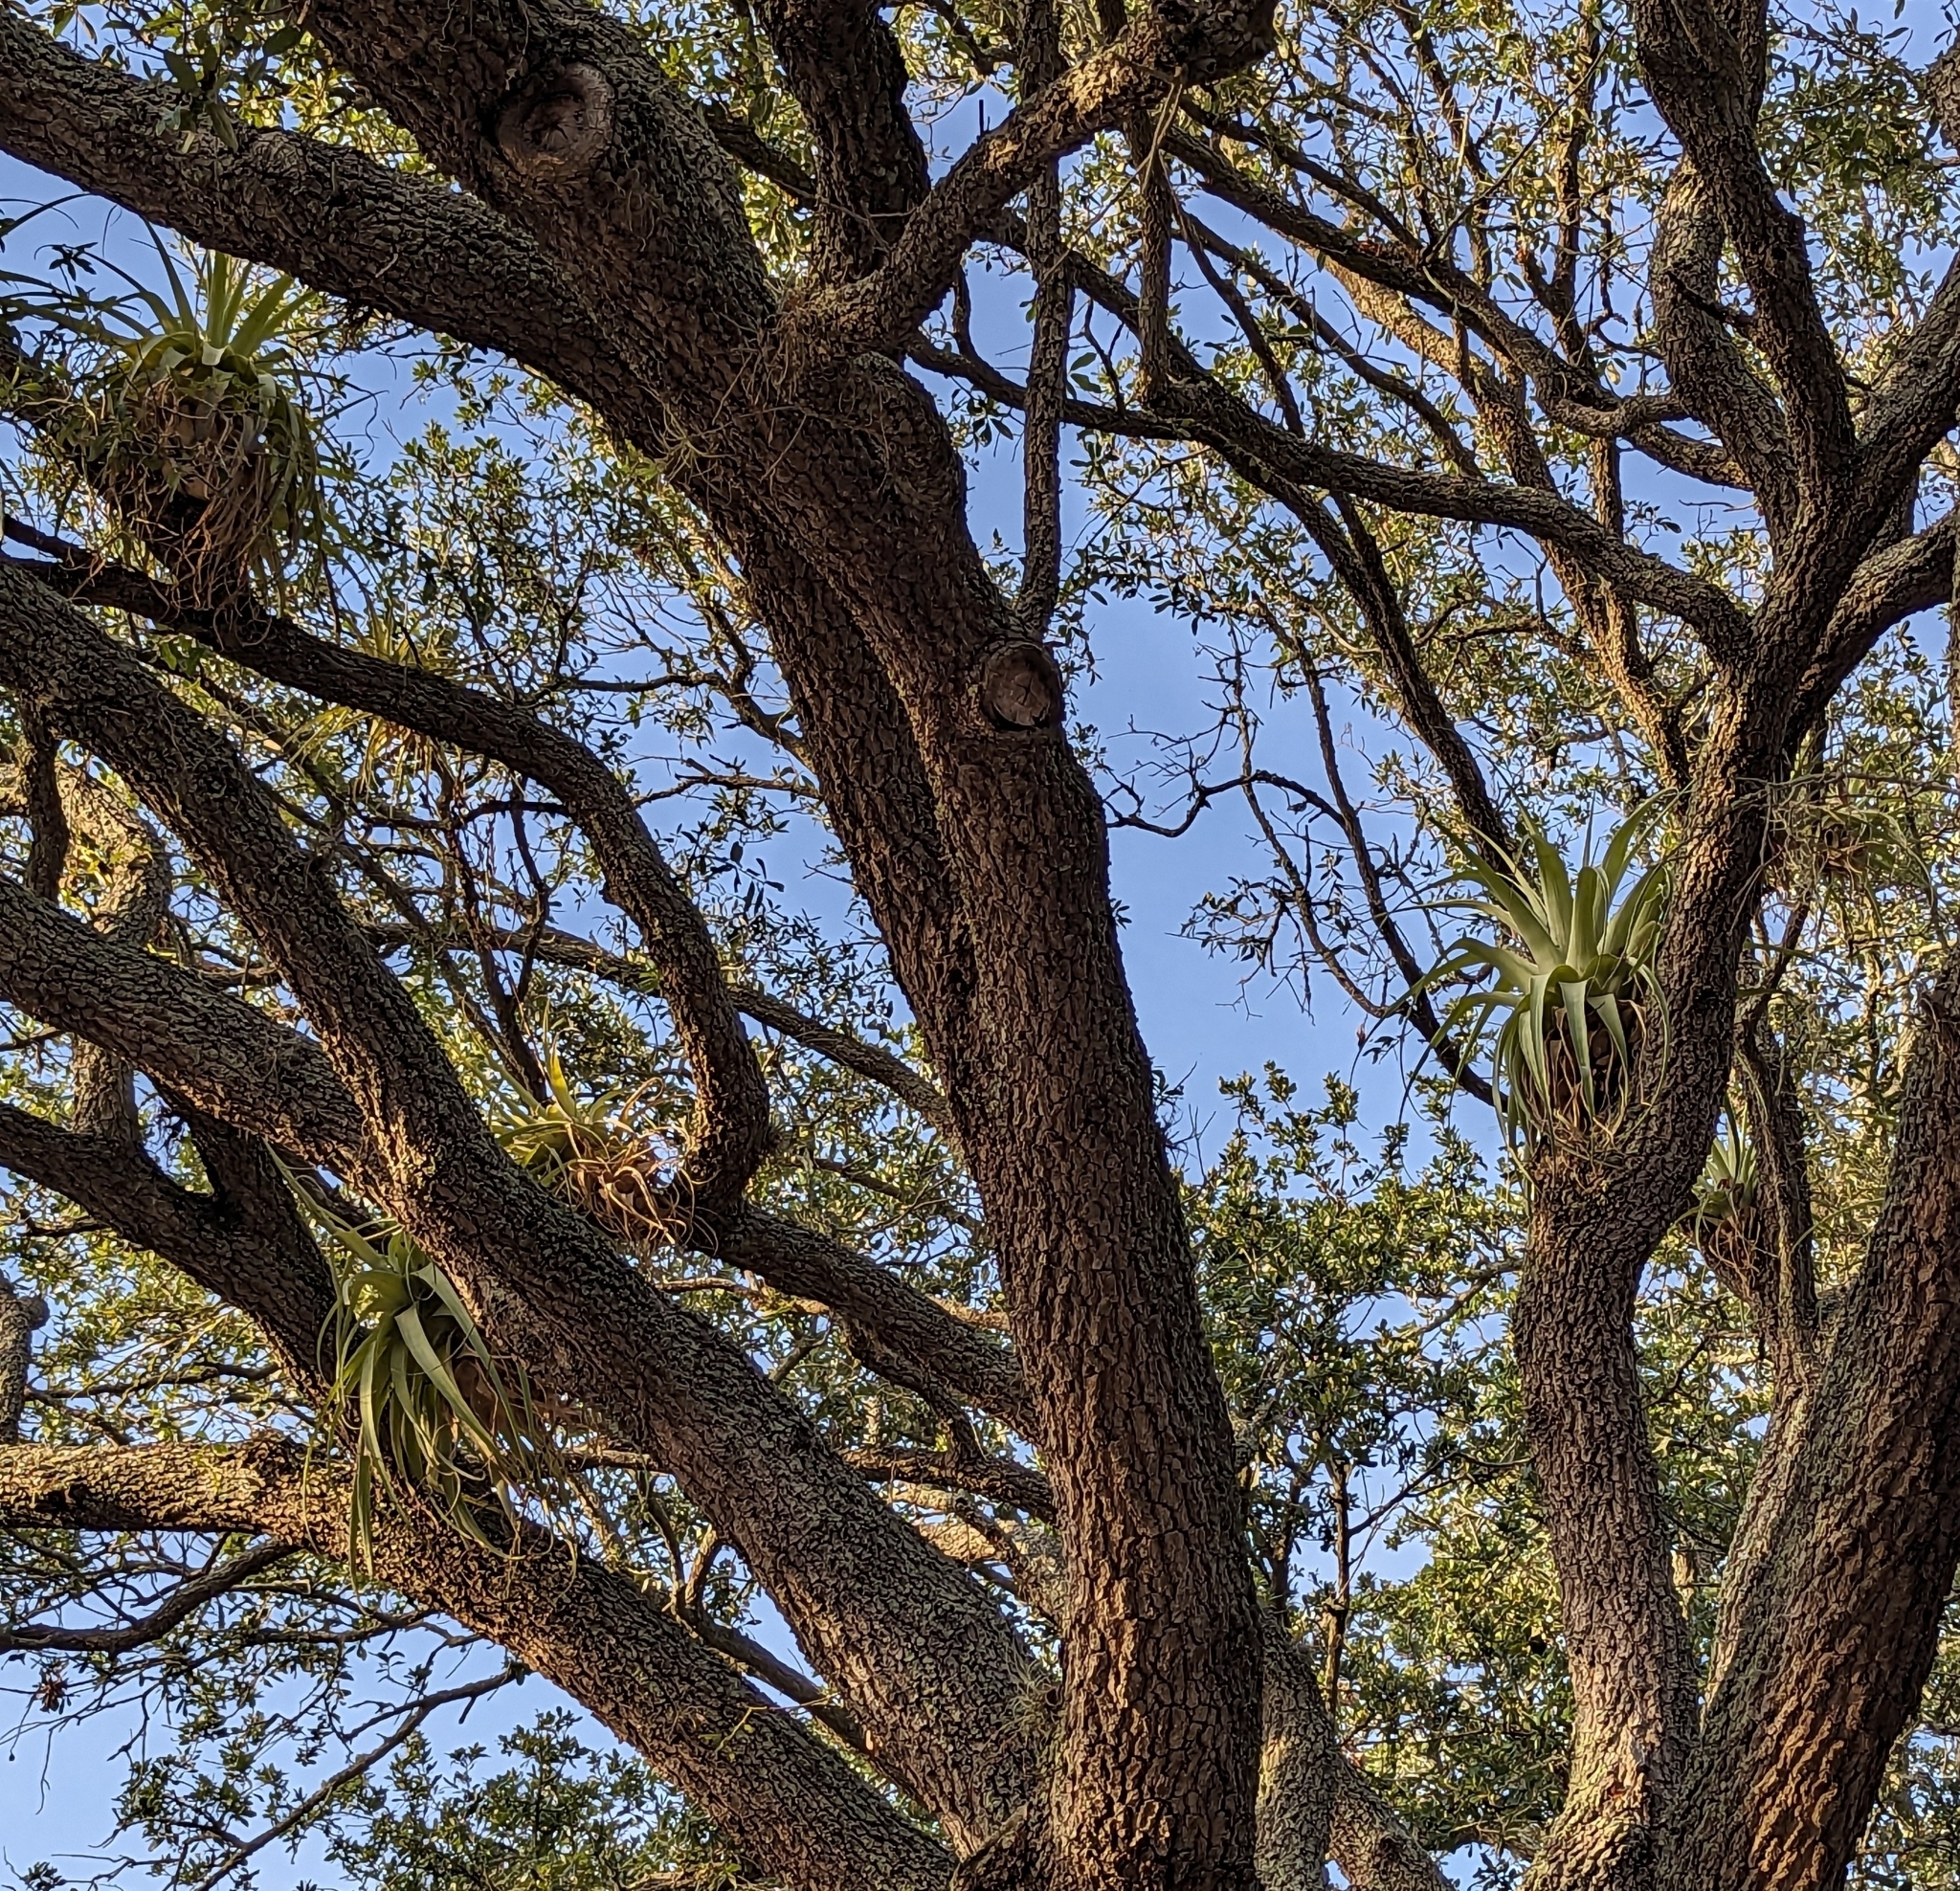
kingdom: Plantae
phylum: Tracheophyta
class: Liliopsida
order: Poales
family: Bromeliaceae
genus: Tillandsia
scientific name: Tillandsia utriculata
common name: Wild pine
